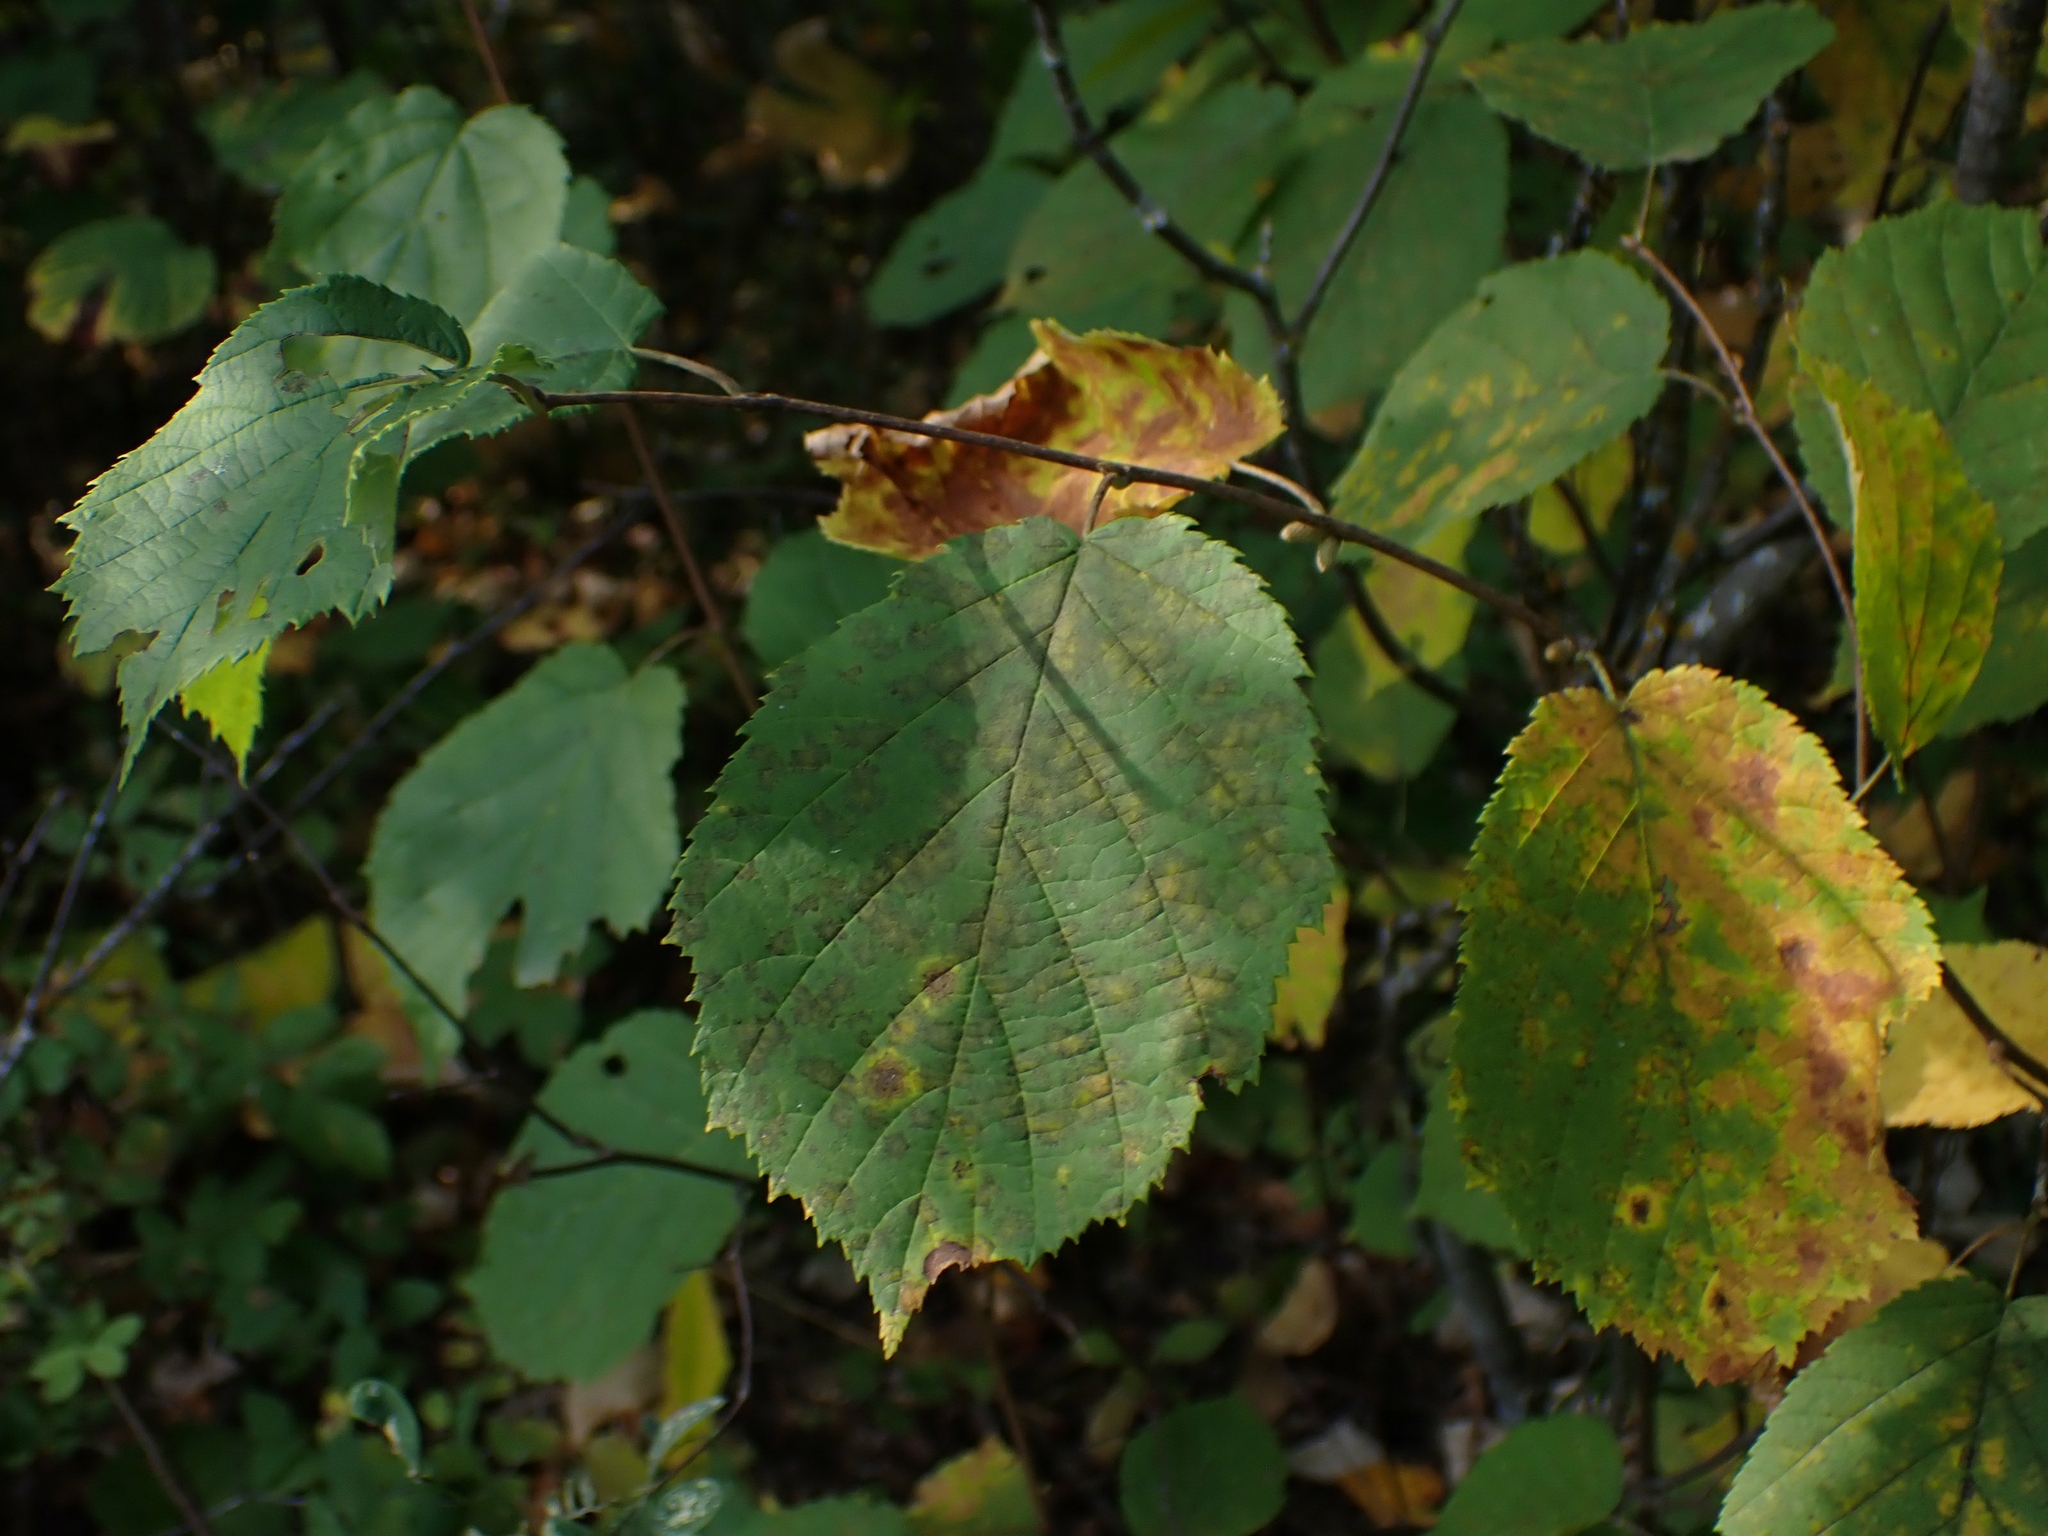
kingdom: Plantae
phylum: Tracheophyta
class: Magnoliopsida
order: Fagales
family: Betulaceae
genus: Corylus
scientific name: Corylus cornuta
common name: Beaked hazel
